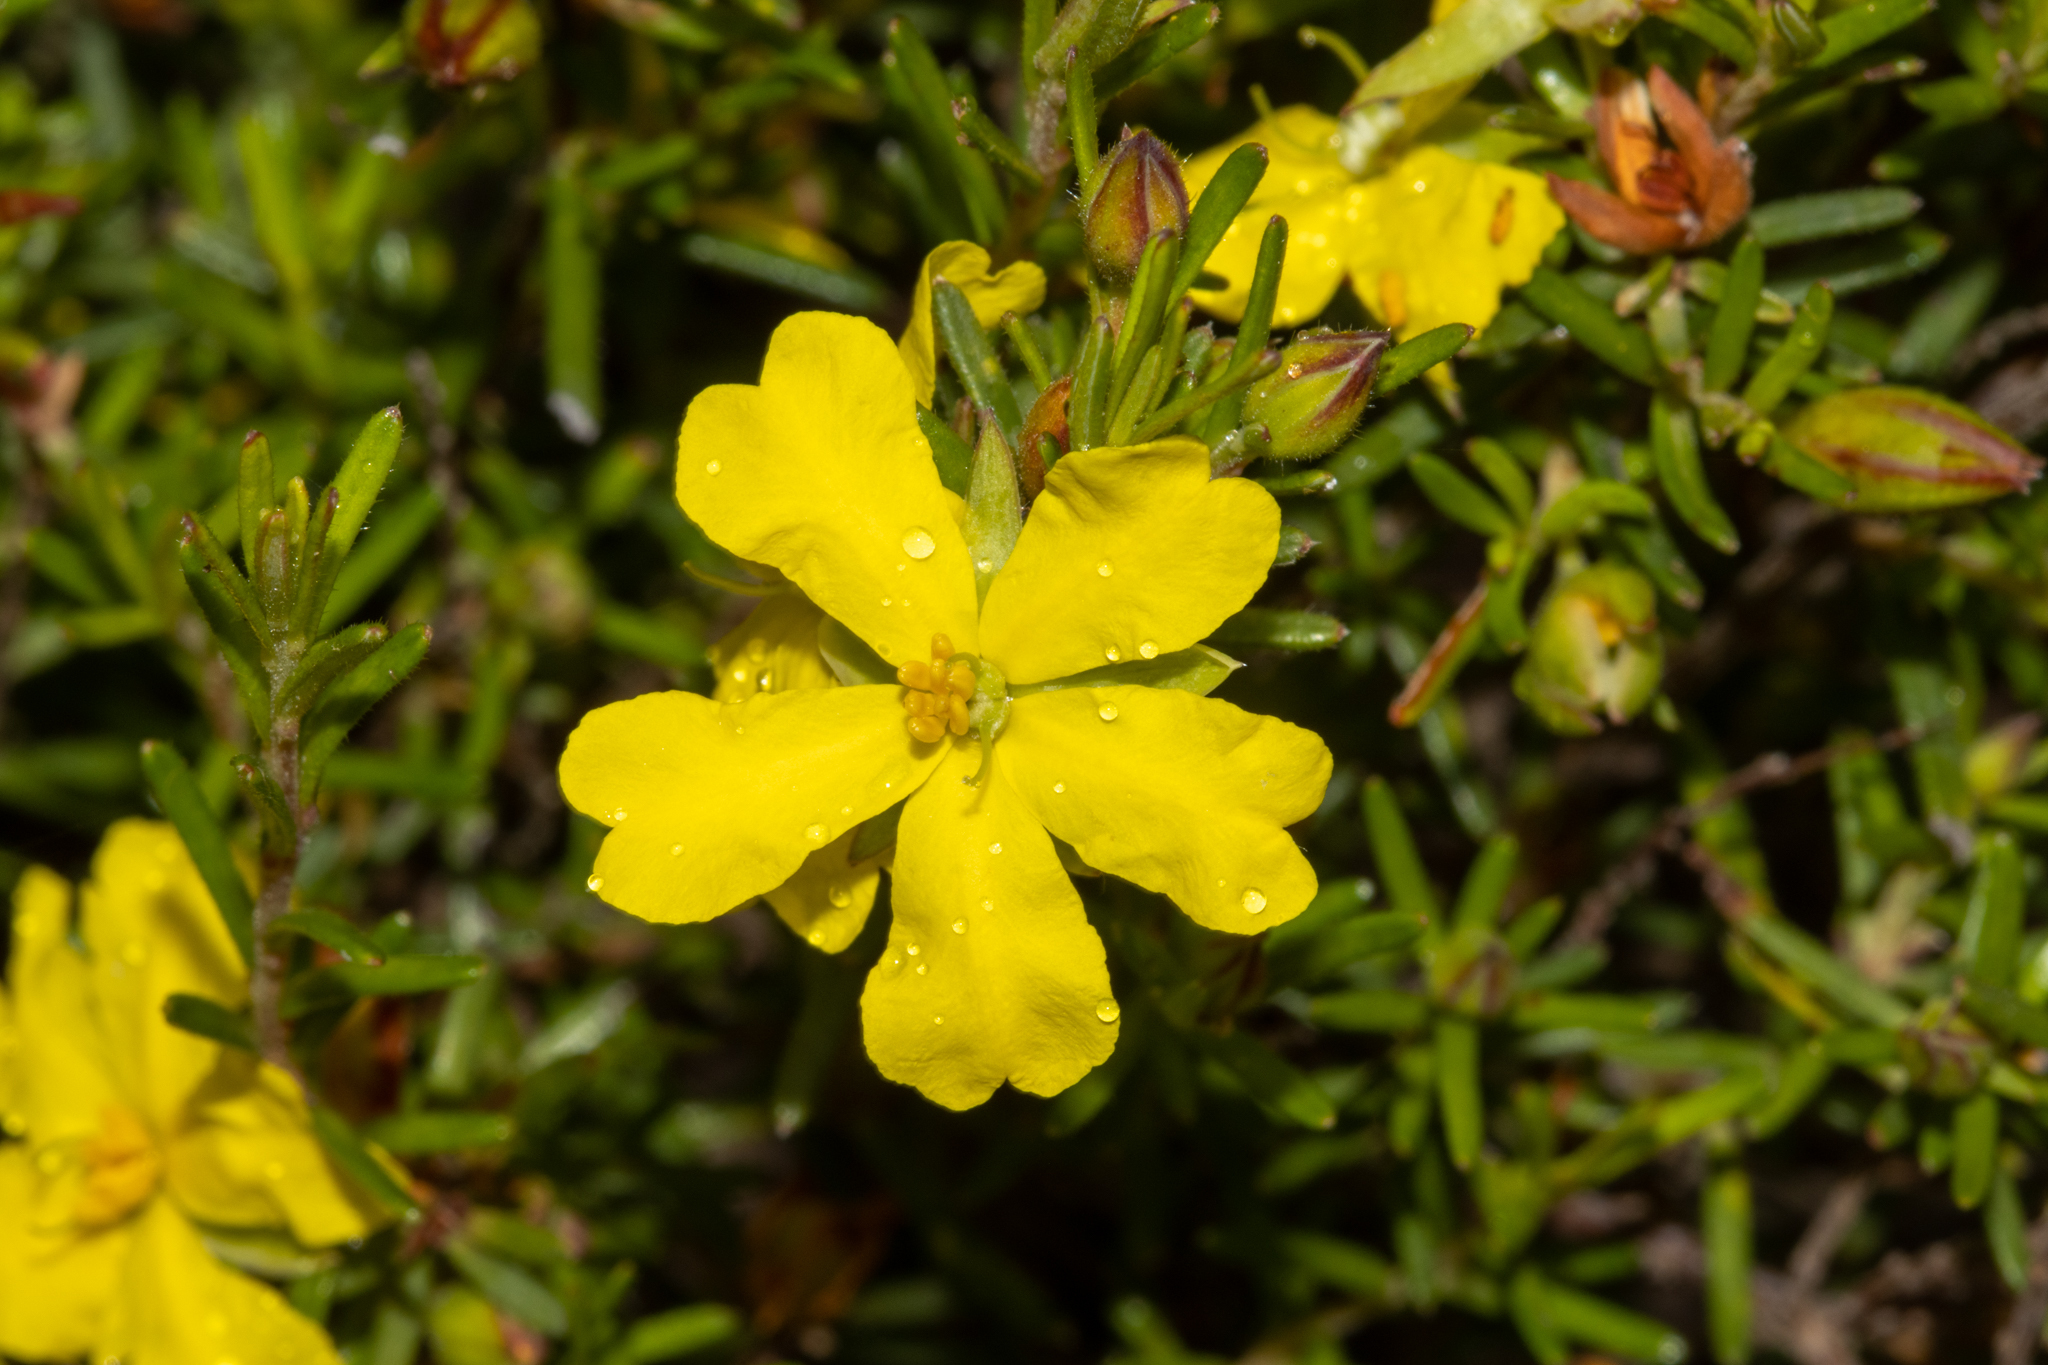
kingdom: Plantae
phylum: Tracheophyta
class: Magnoliopsida
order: Dilleniales
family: Dilleniaceae
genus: Hibbertia
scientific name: Hibbertia riparia
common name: Erect guinea-flower
